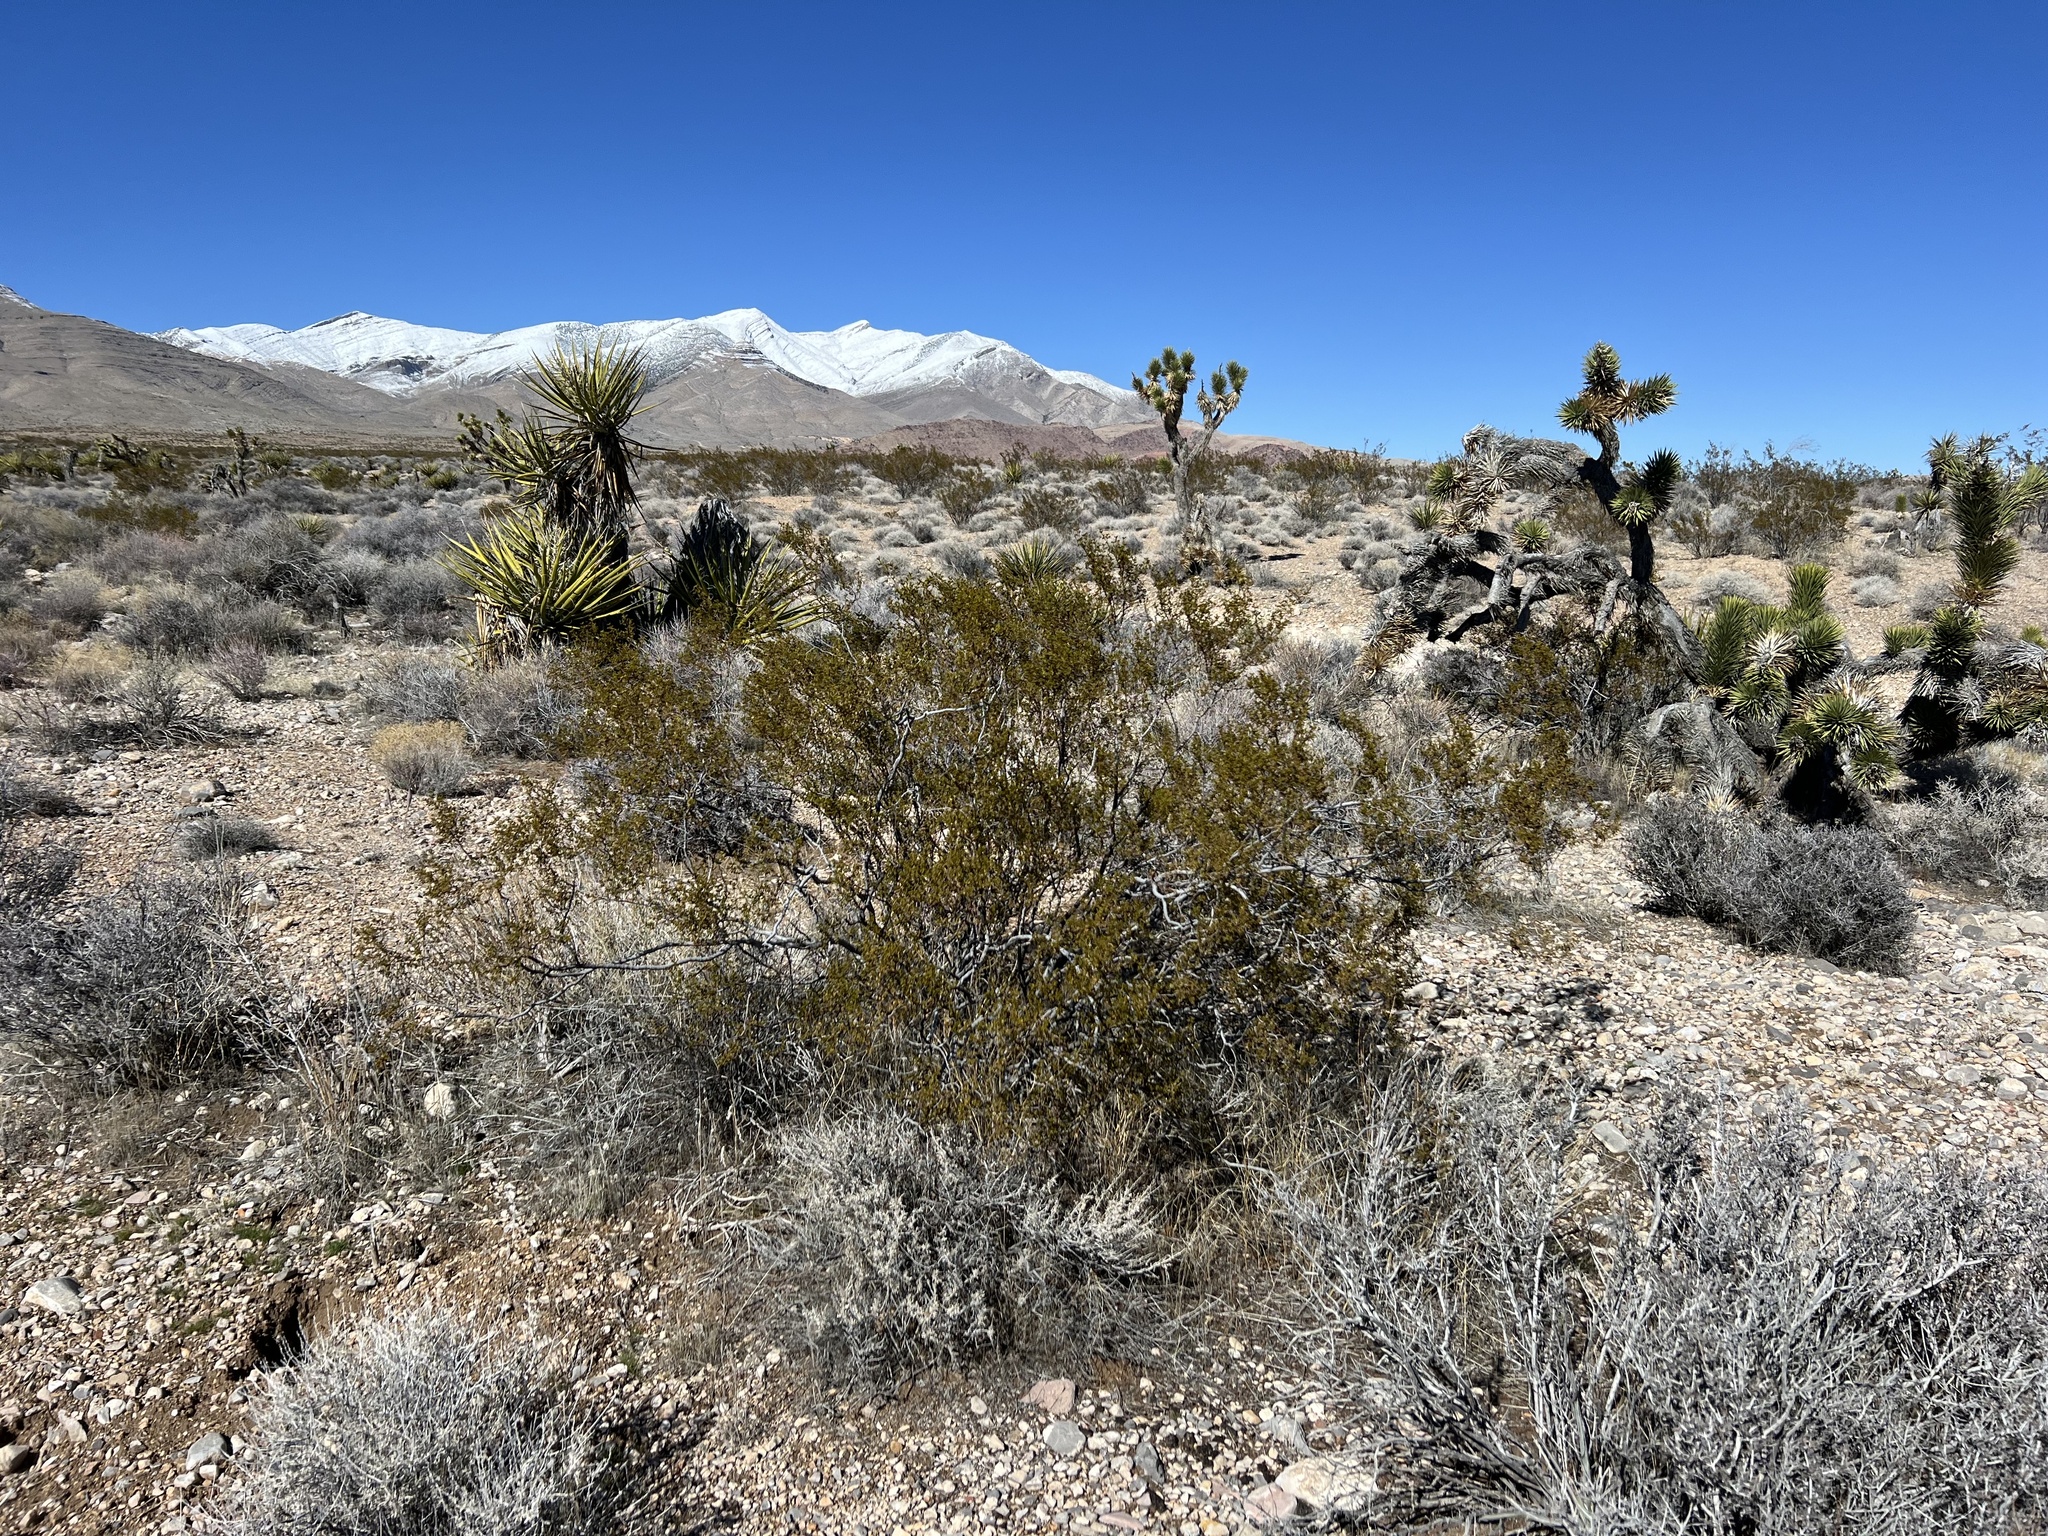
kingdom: Plantae
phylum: Tracheophyta
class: Magnoliopsida
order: Zygophyllales
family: Zygophyllaceae
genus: Larrea
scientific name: Larrea tridentata
